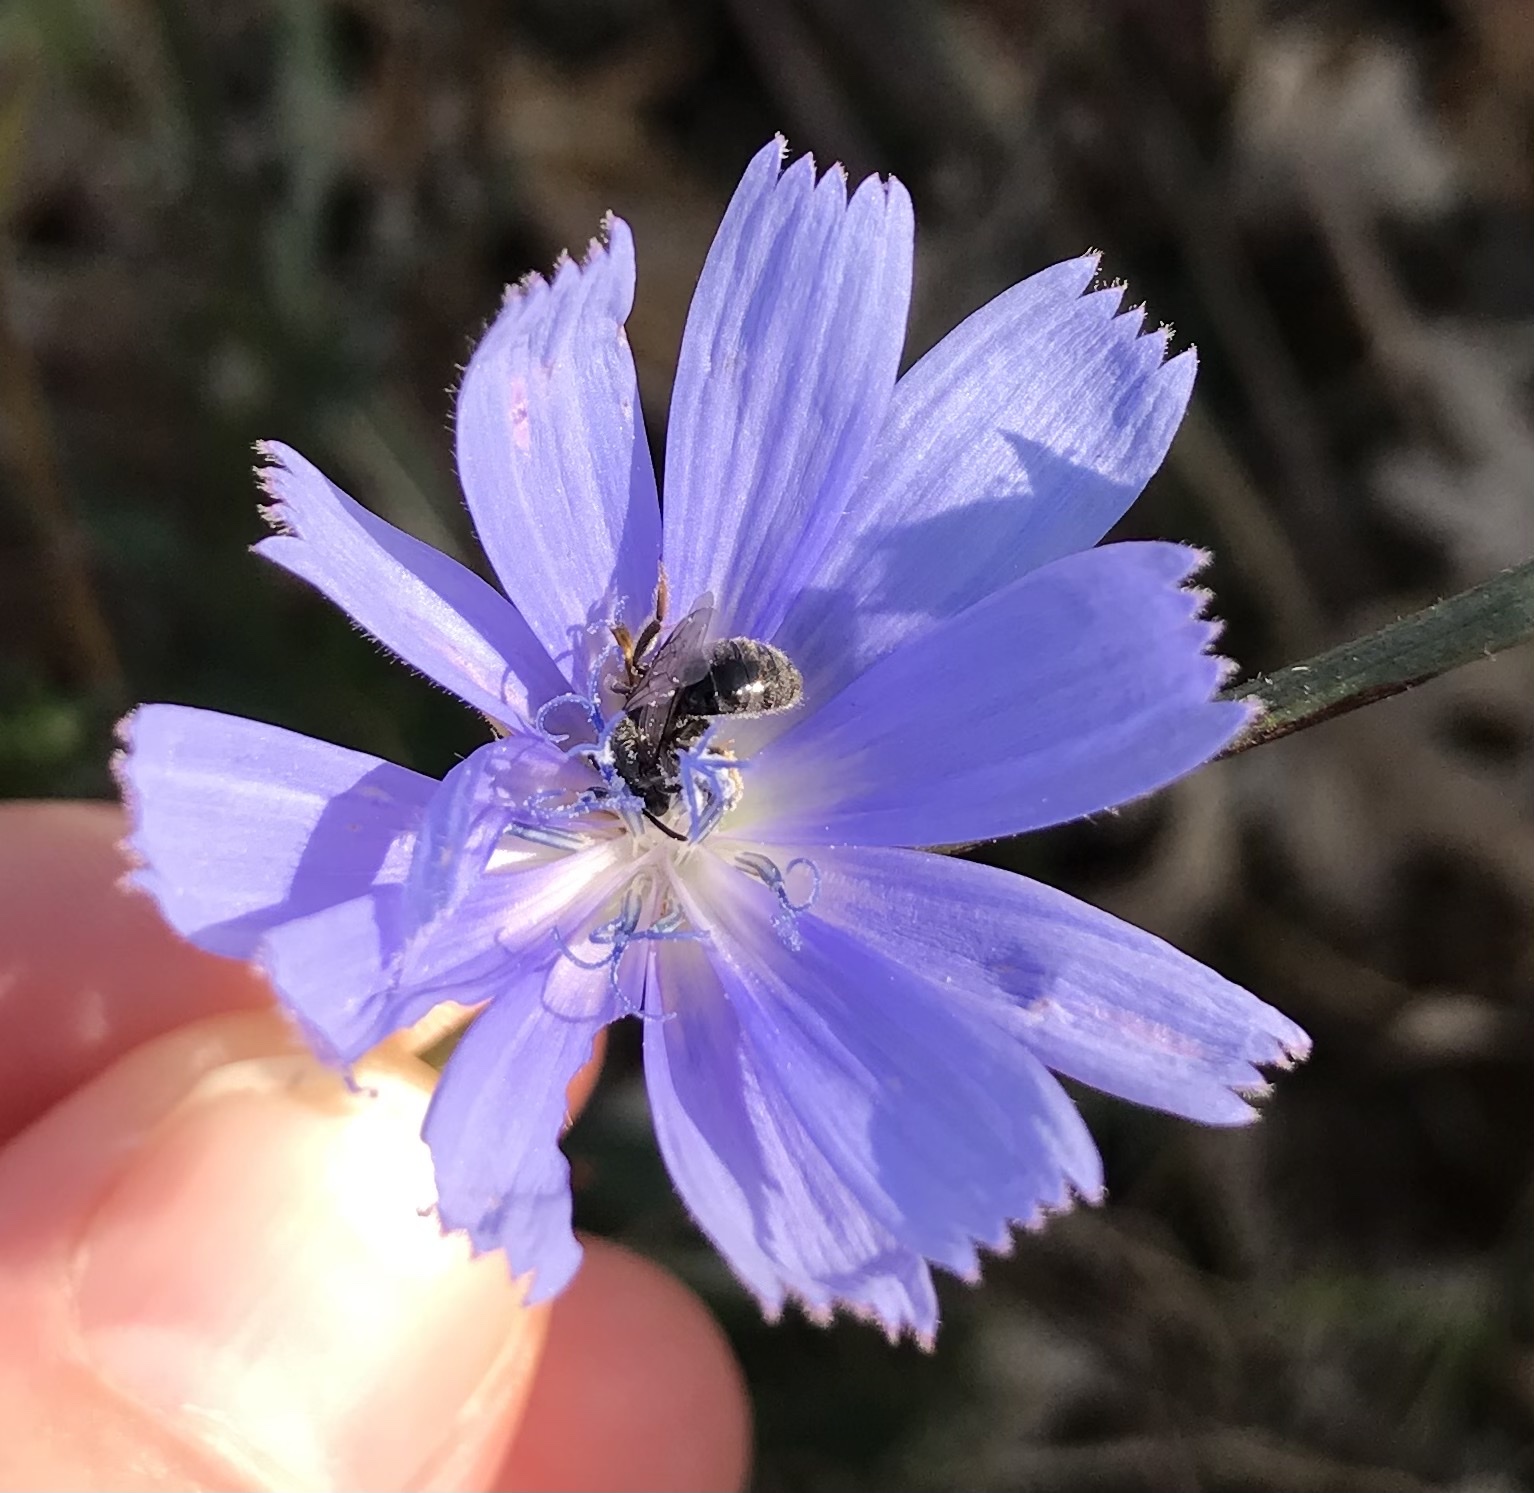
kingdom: Plantae
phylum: Tracheophyta
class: Magnoliopsida
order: Asterales
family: Asteraceae
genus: Cichorium
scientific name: Cichorium intybus
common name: Chicory
